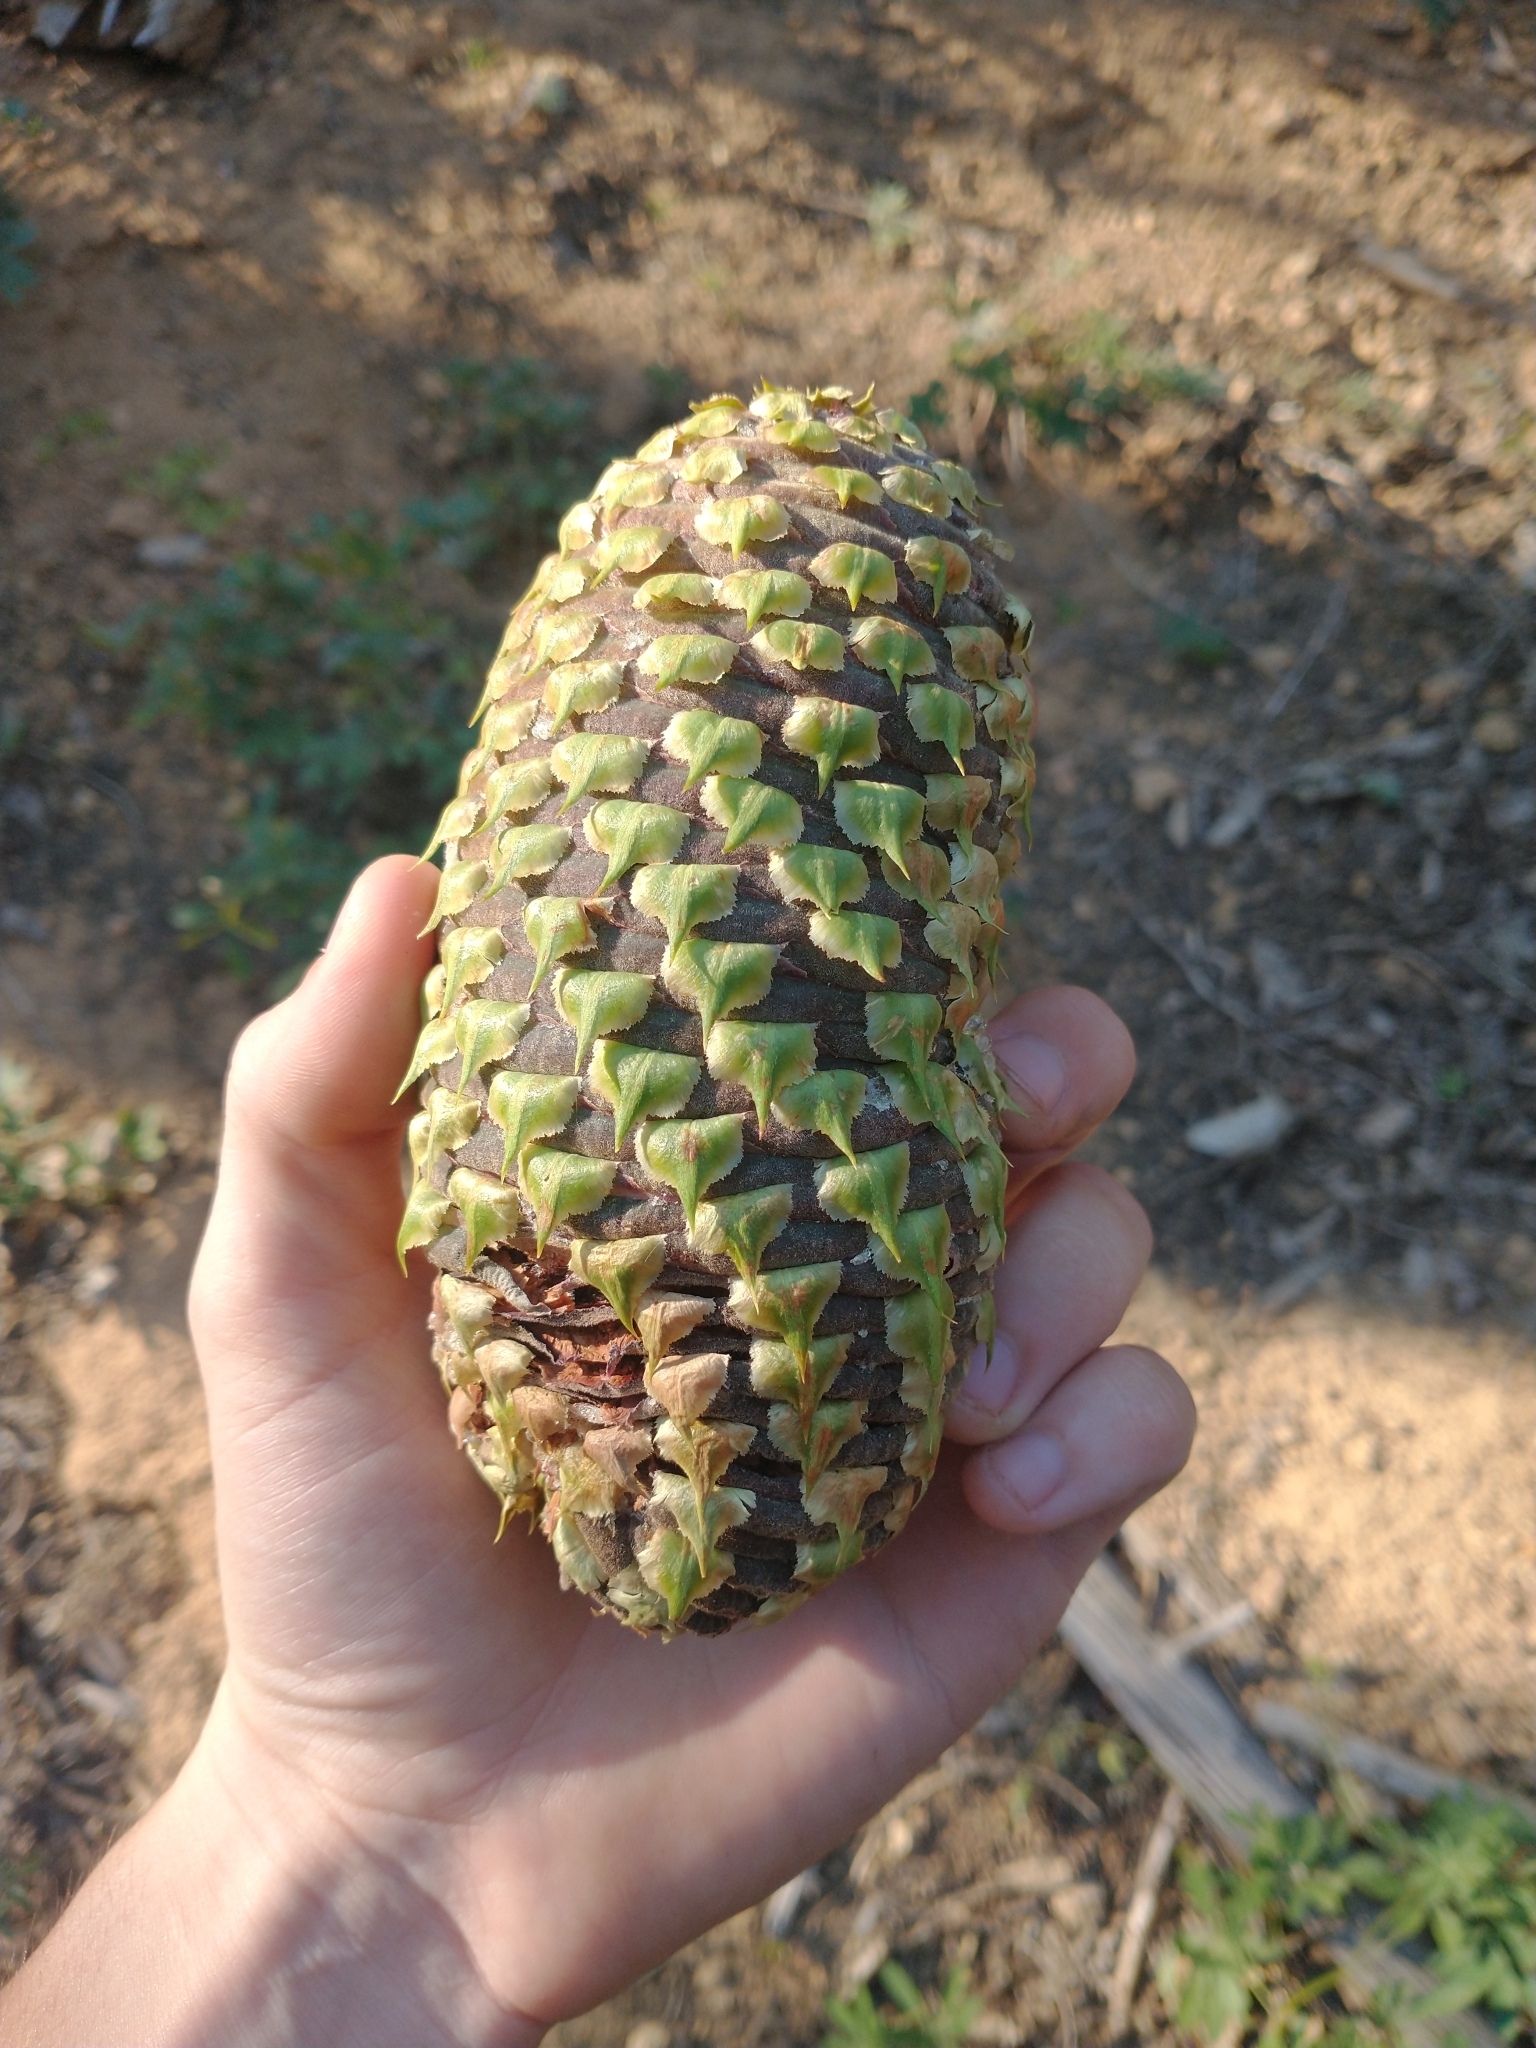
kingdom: Plantae
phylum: Tracheophyta
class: Pinopsida
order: Pinales
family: Pinaceae
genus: Abies
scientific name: Abies magnifica bis
